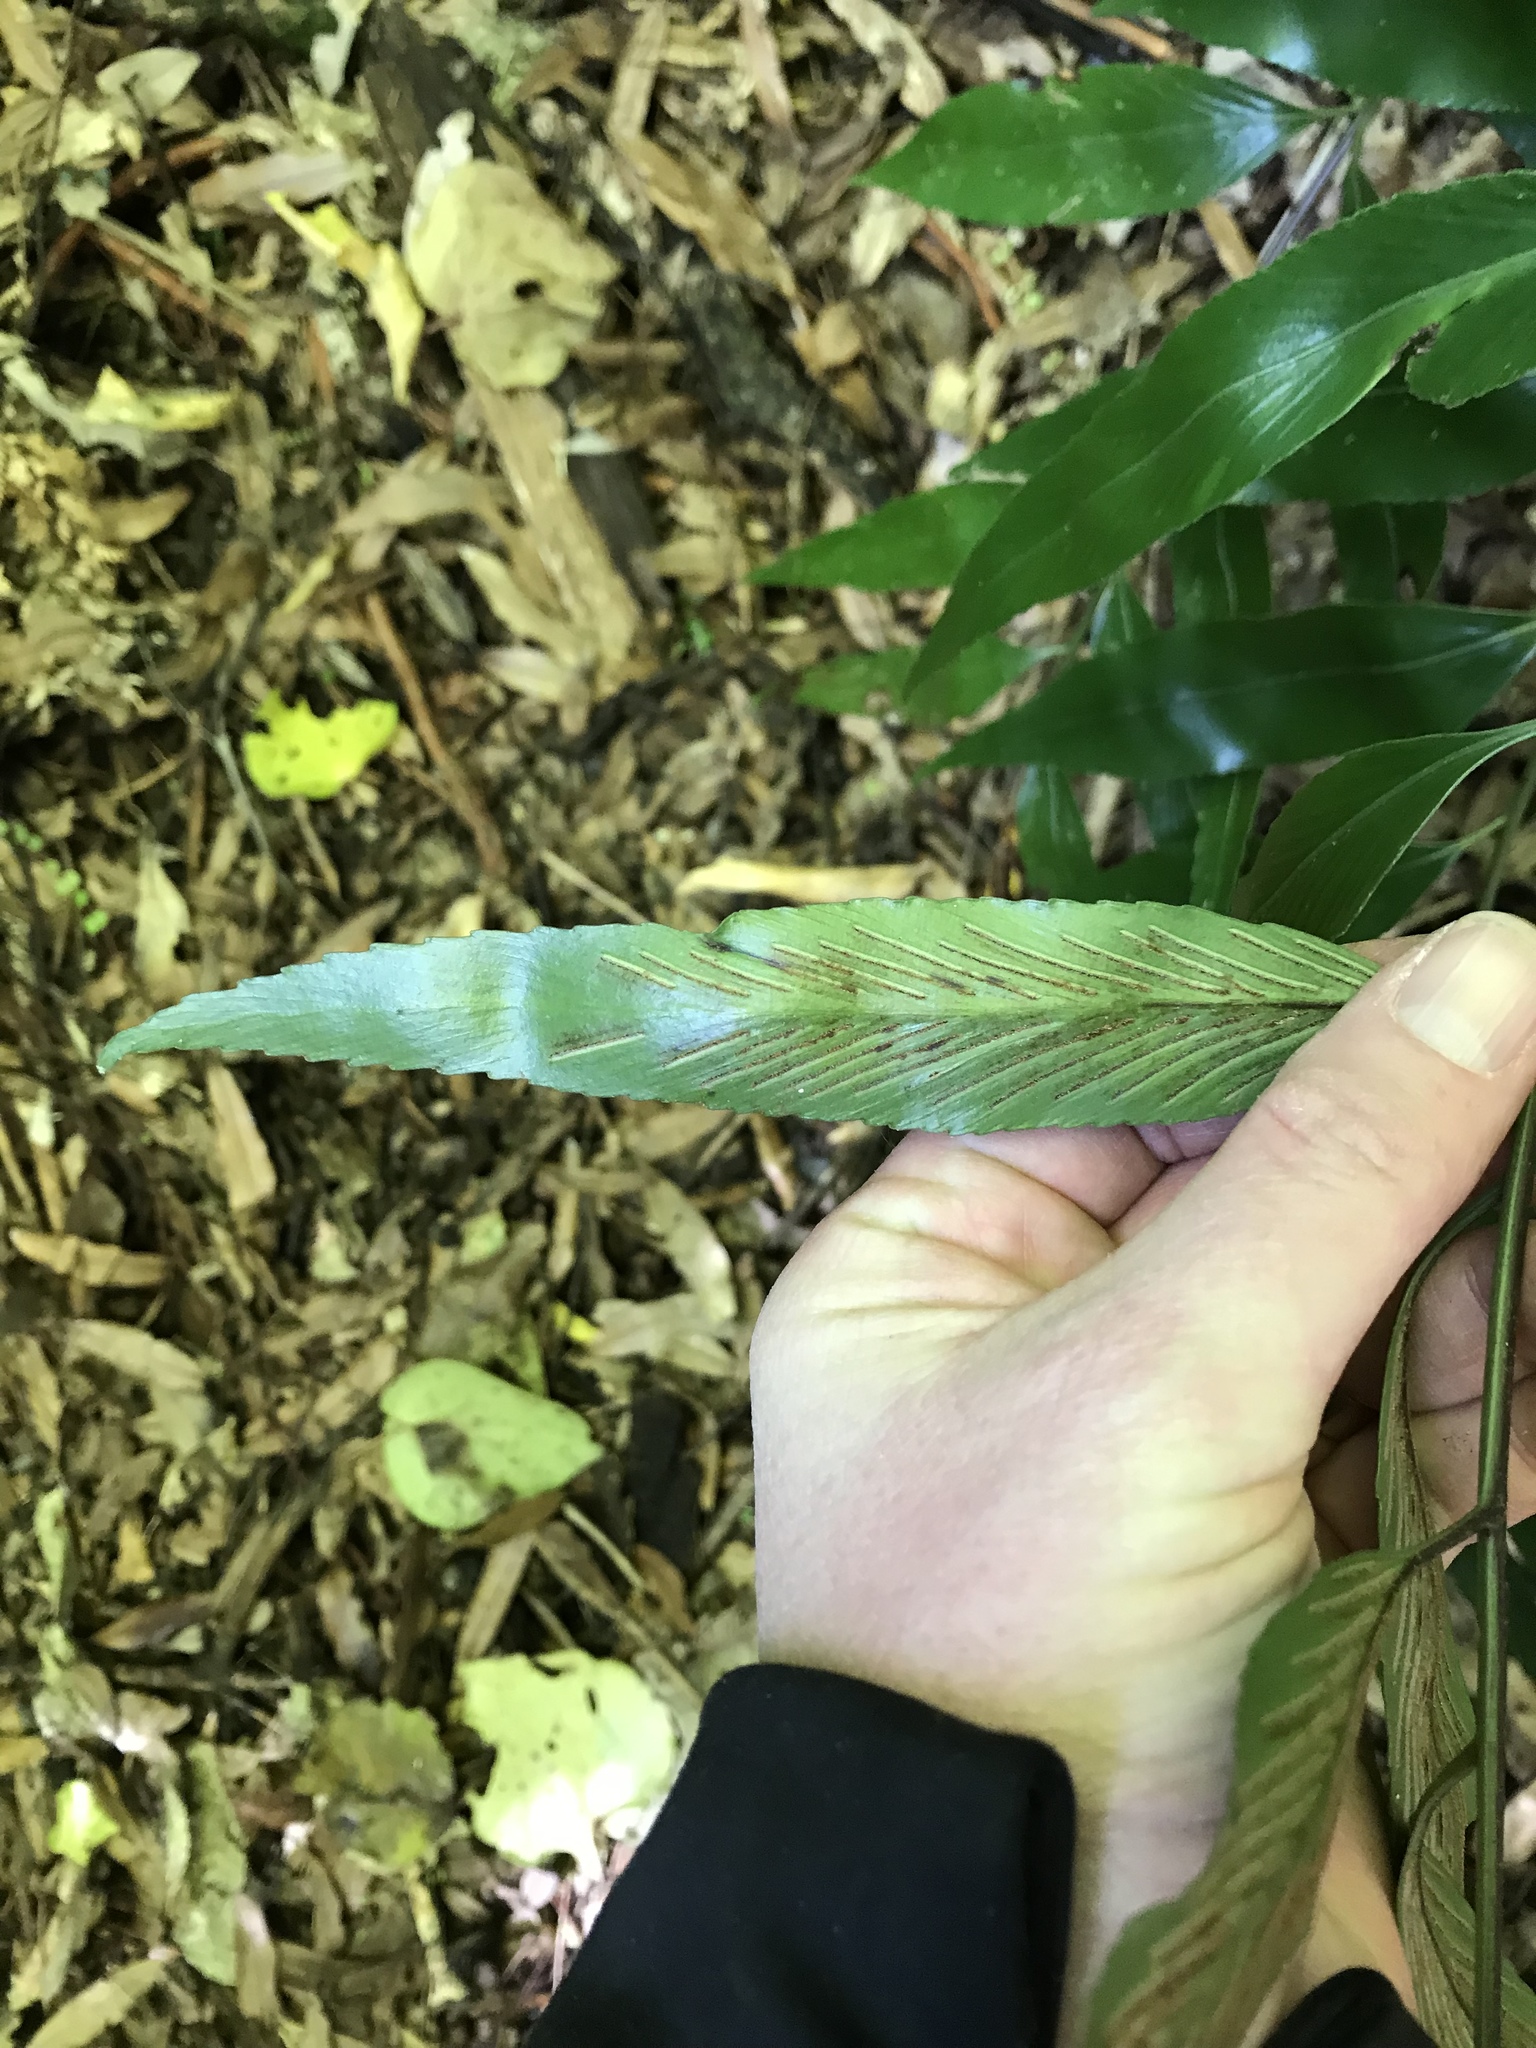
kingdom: Plantae
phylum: Tracheophyta
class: Polypodiopsida
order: Polypodiales
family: Aspleniaceae
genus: Asplenium
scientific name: Asplenium oblongifolium
